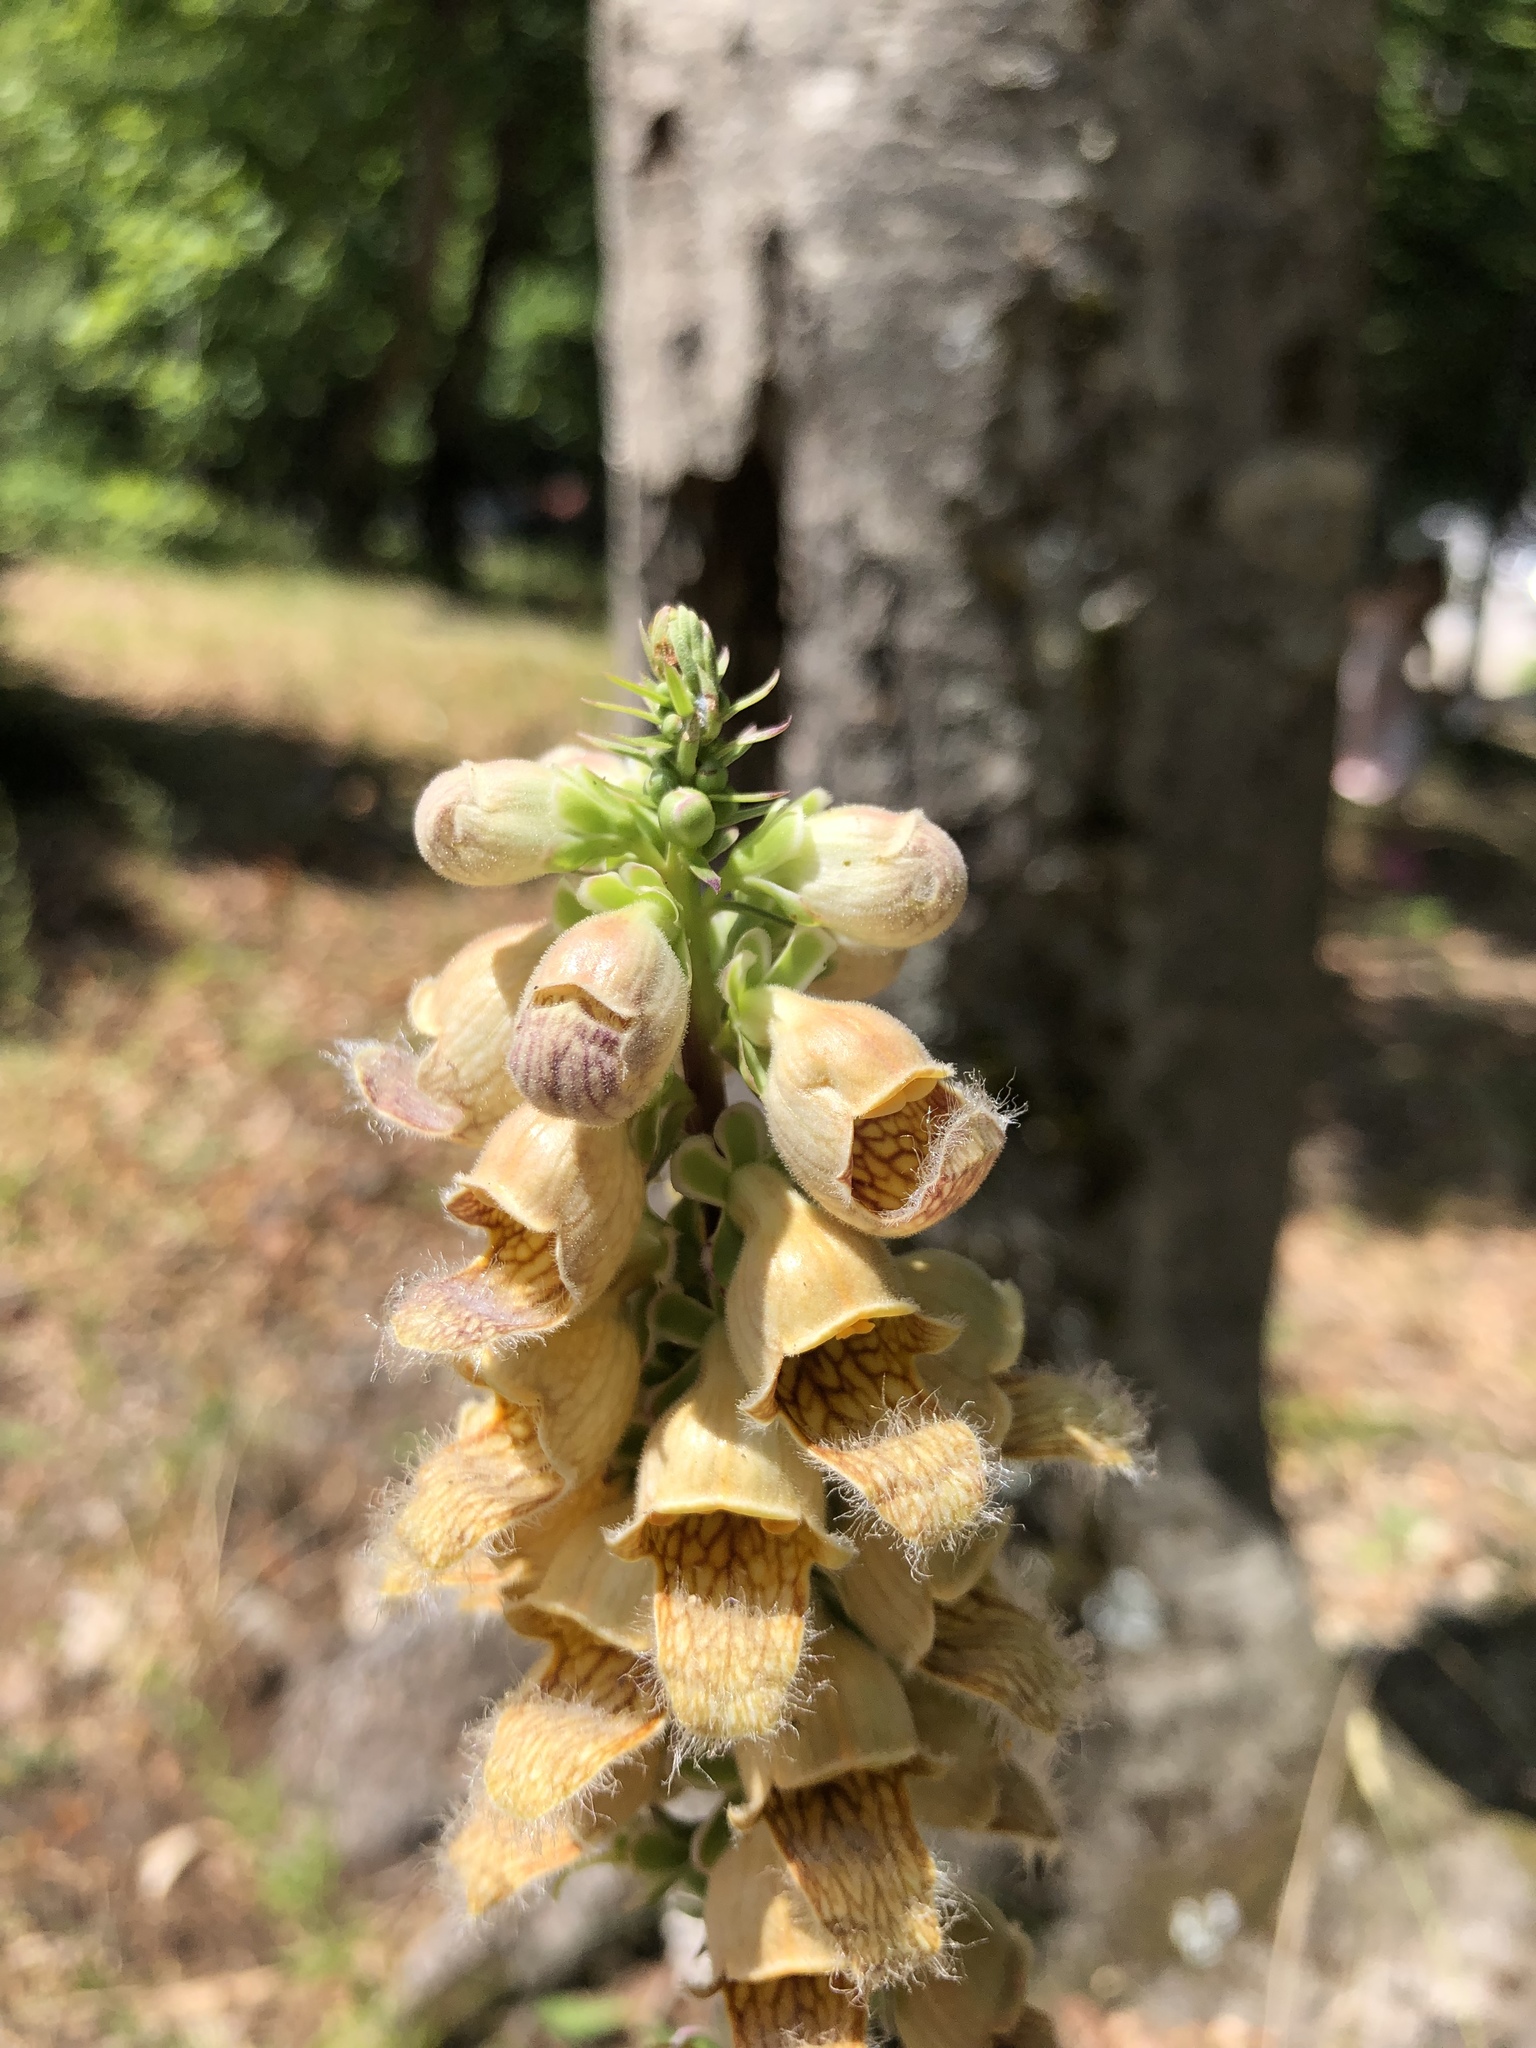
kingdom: Plantae
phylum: Tracheophyta
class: Magnoliopsida
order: Lamiales
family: Plantaginaceae
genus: Digitalis
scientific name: Digitalis ferruginea
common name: Rusty foxglove
